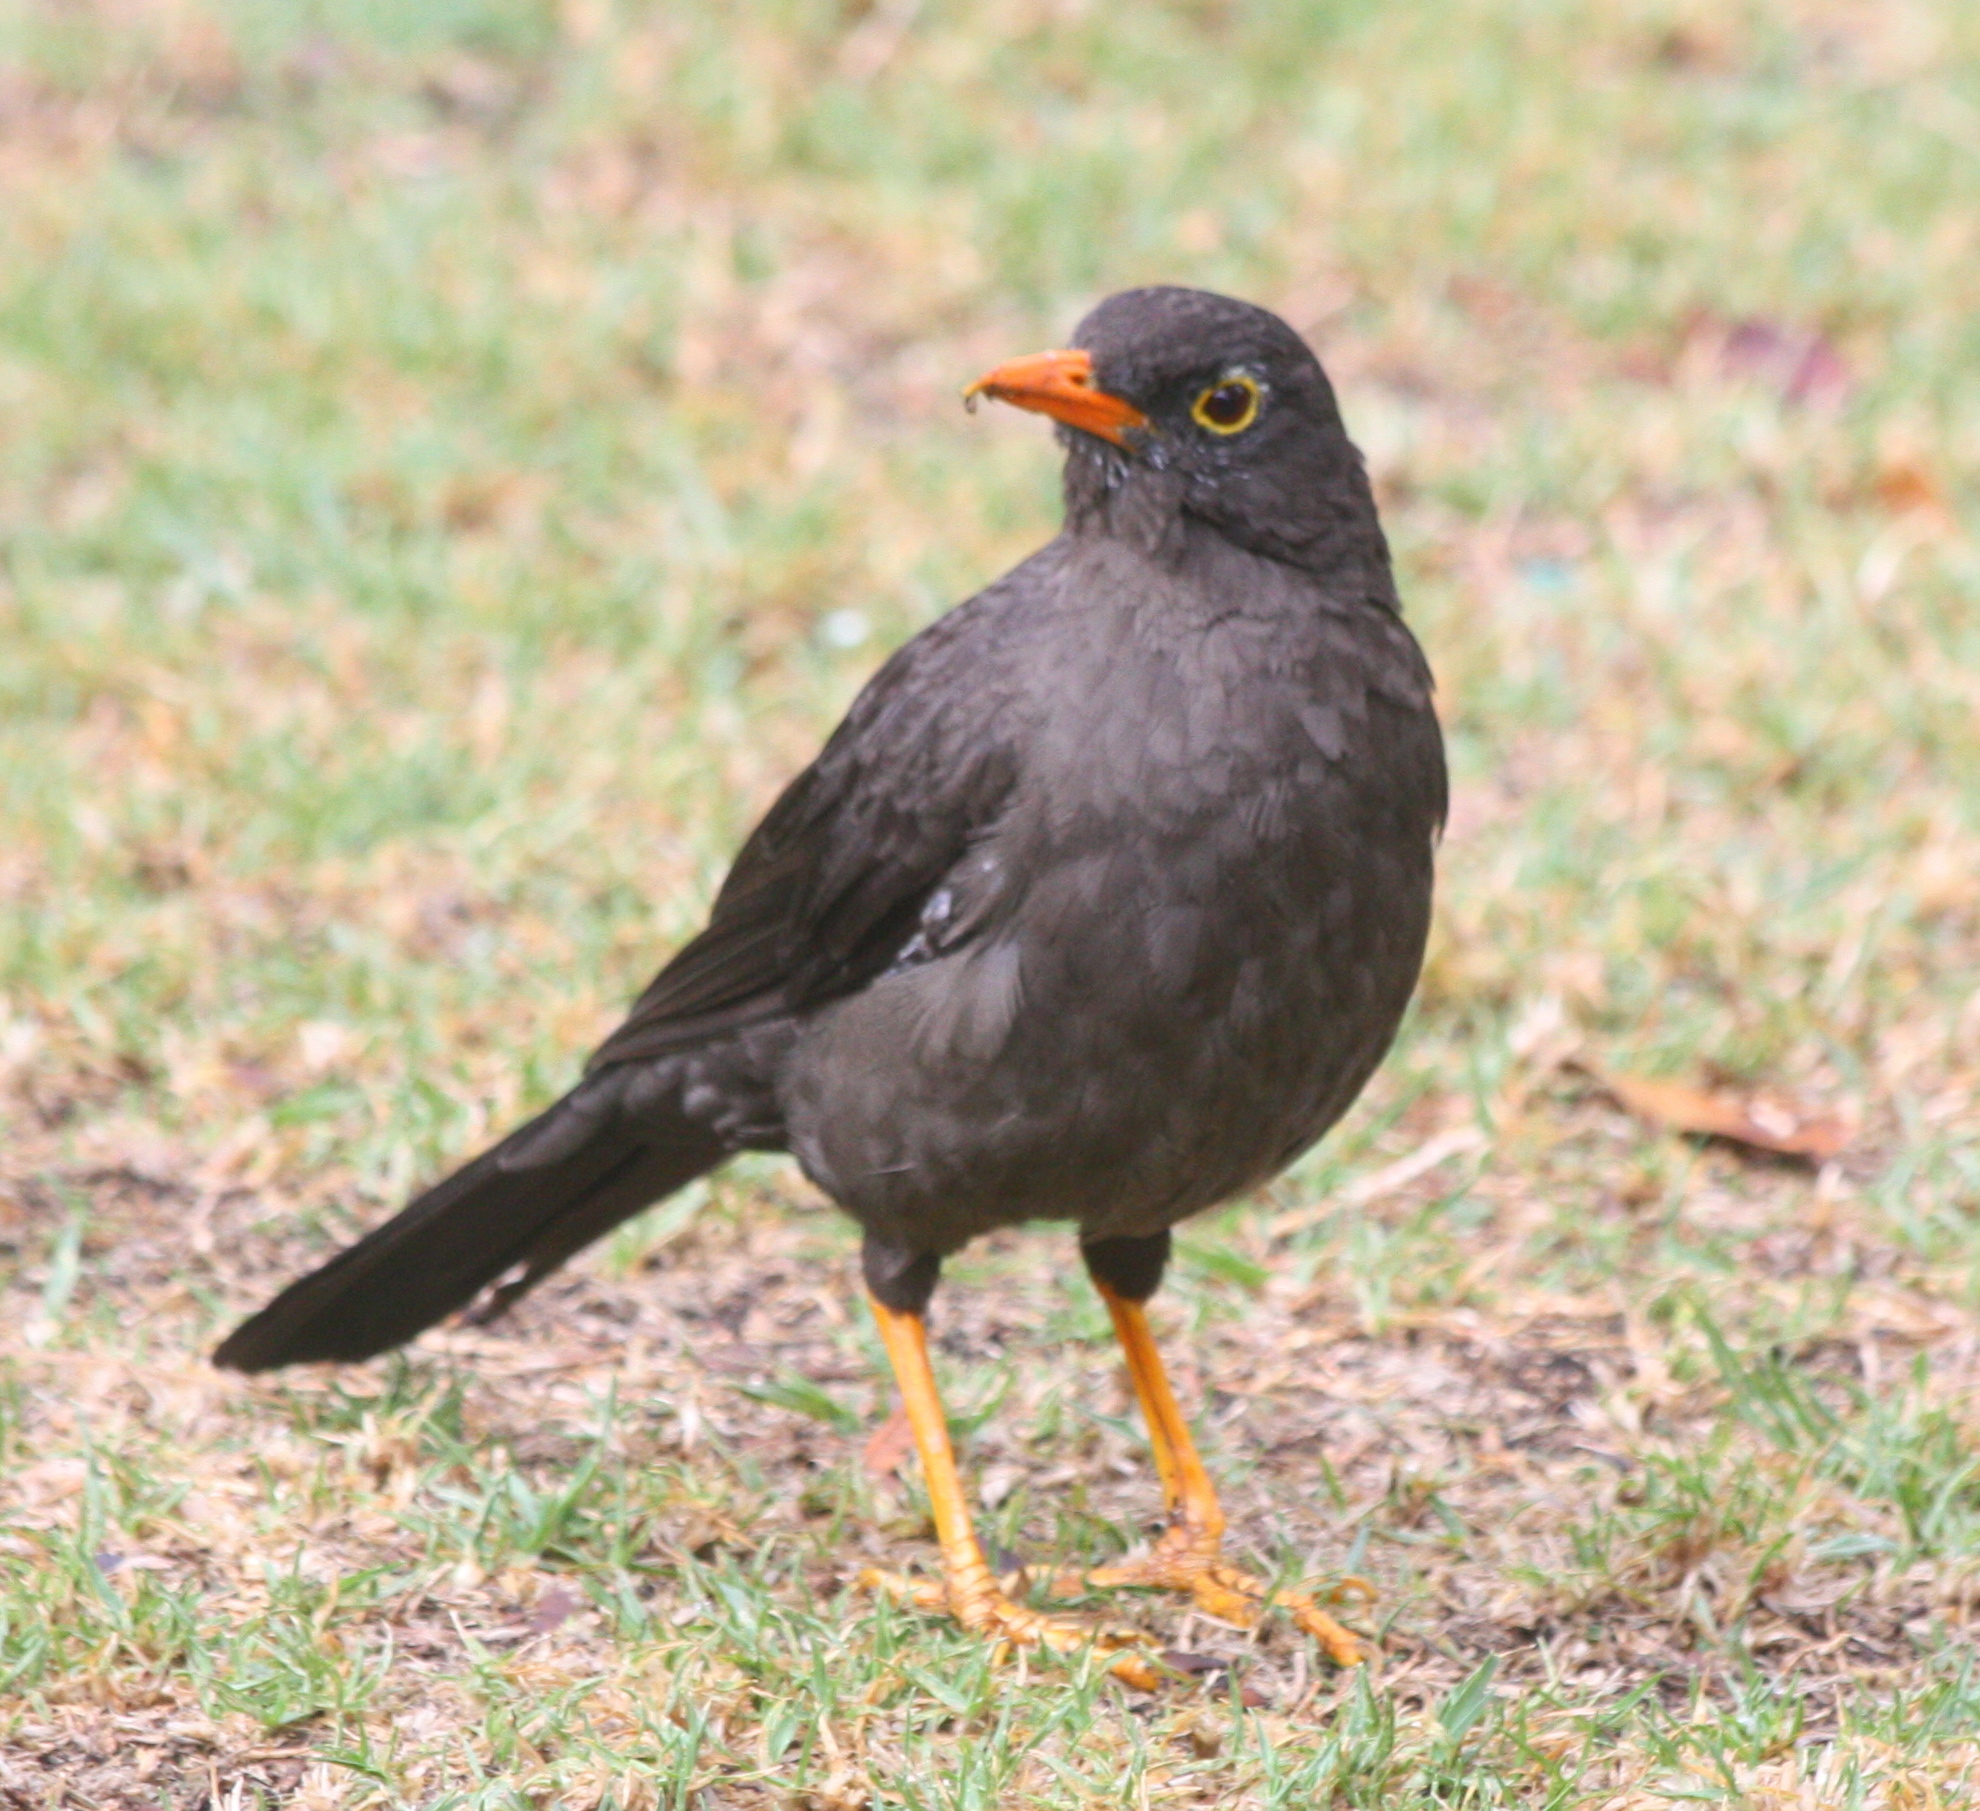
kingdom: Animalia
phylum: Chordata
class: Aves
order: Passeriformes
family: Turdidae
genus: Turdus
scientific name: Turdus fuscater
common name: Great thrush
